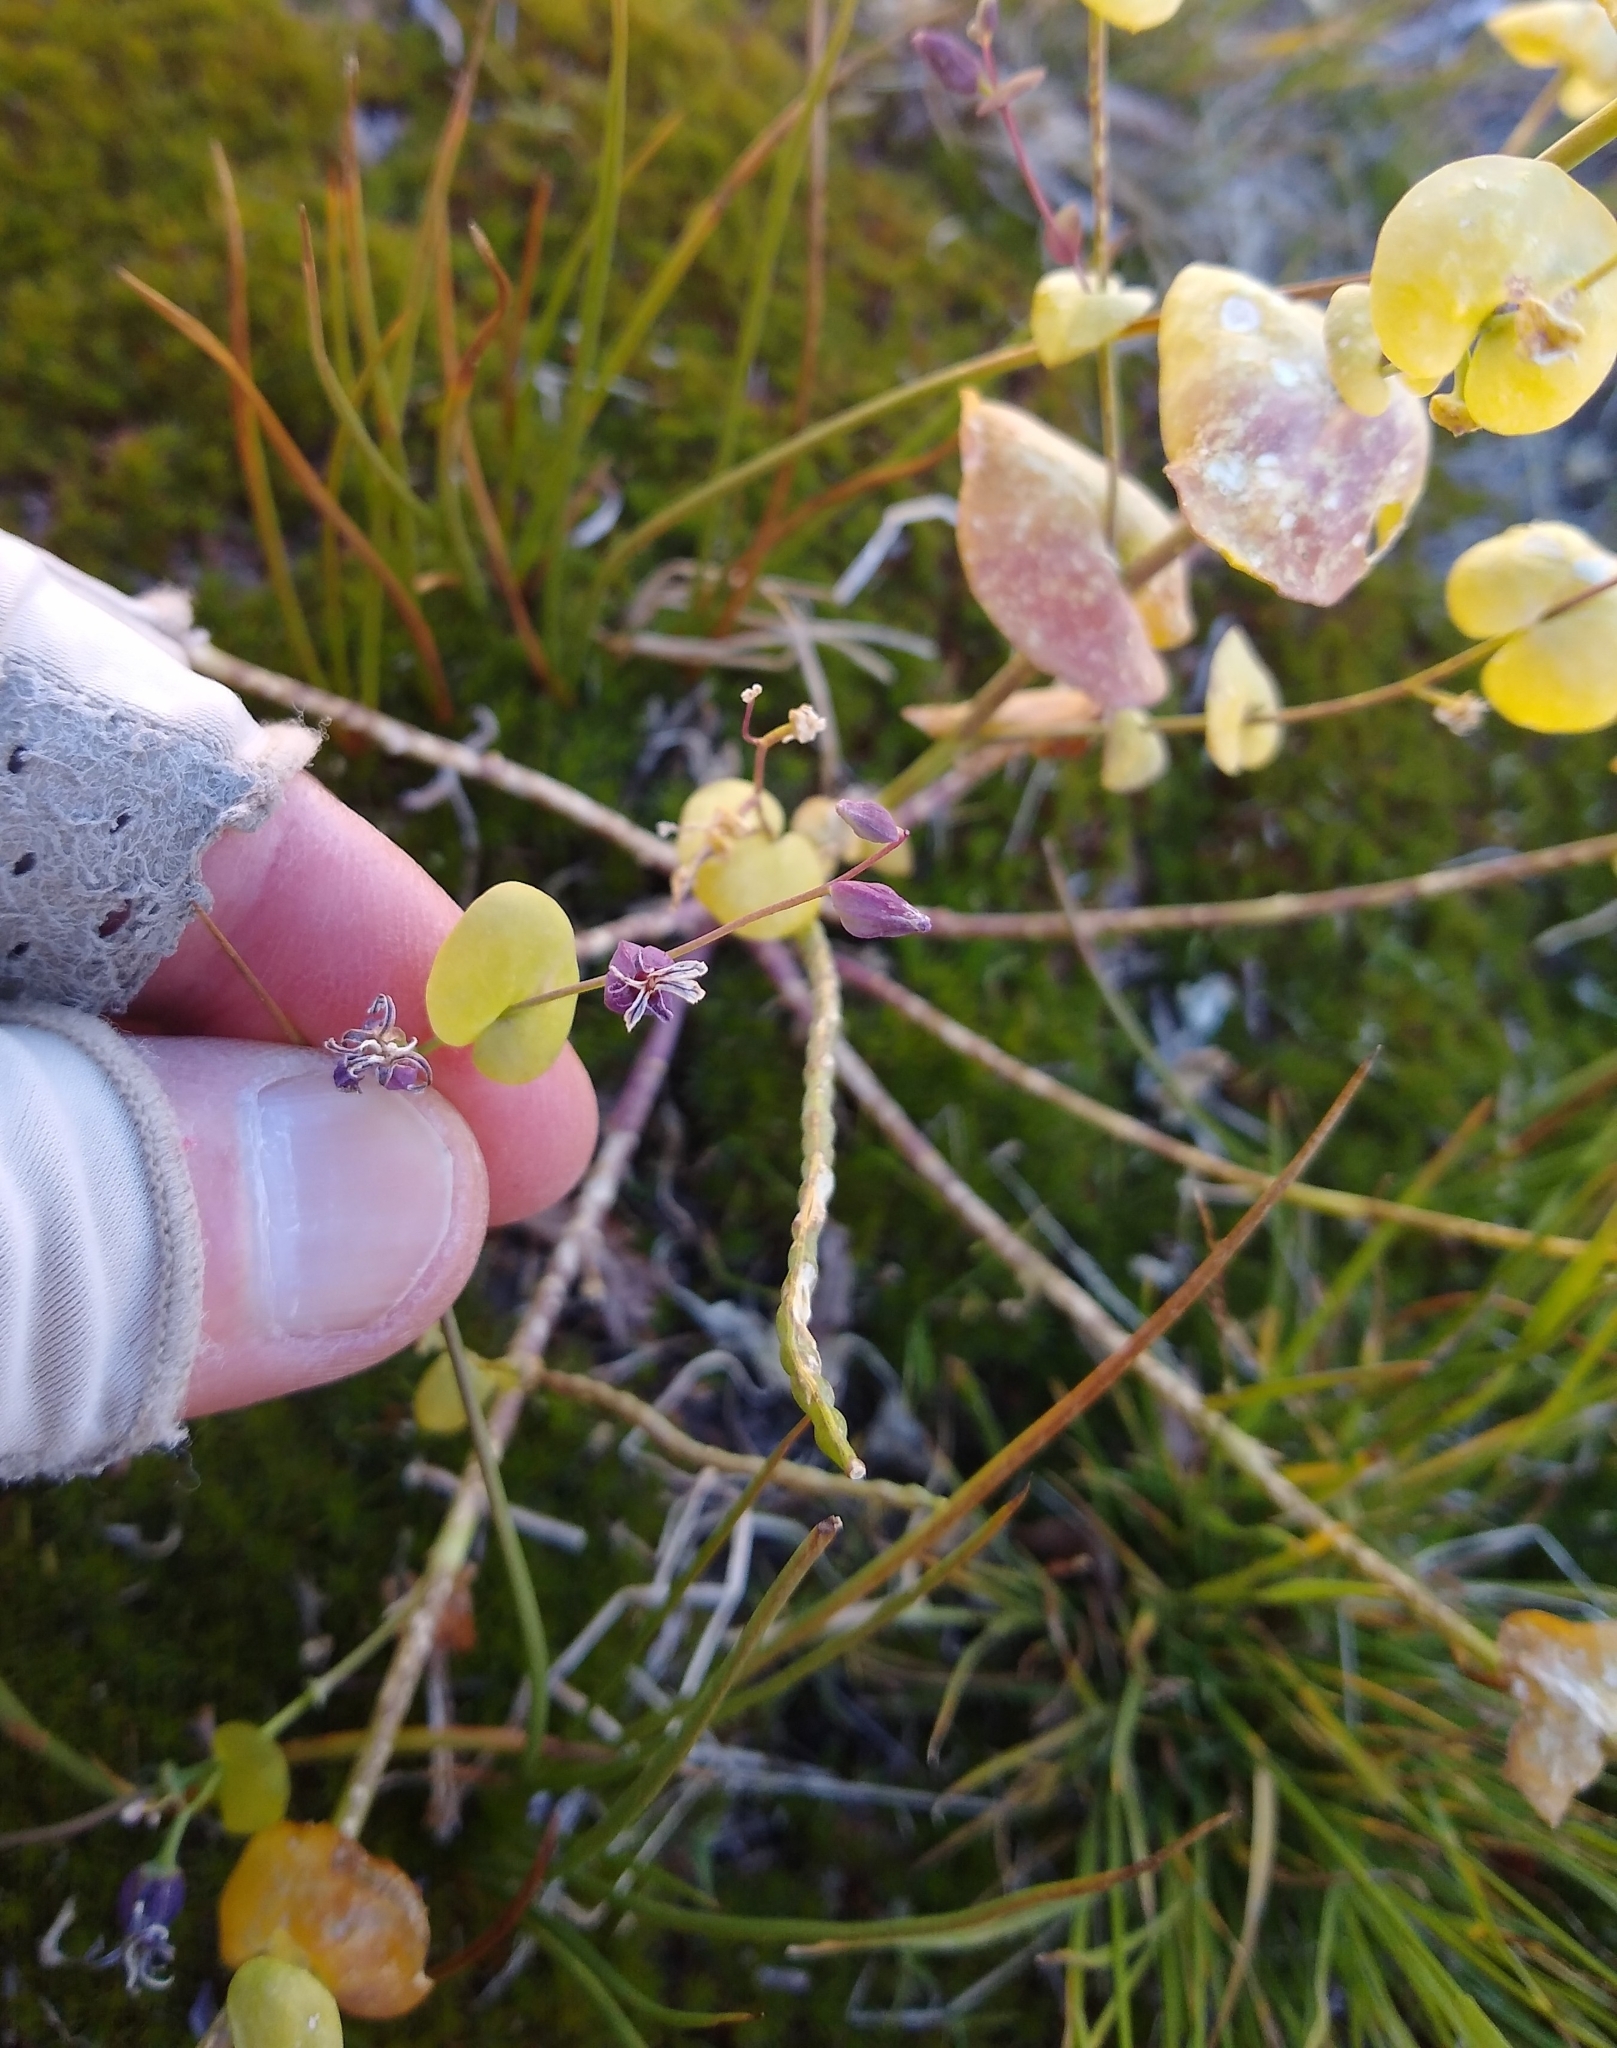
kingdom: Plantae
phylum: Tracheophyta
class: Magnoliopsida
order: Brassicales
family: Brassicaceae
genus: Streptanthus
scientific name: Streptanthus tortuosus
